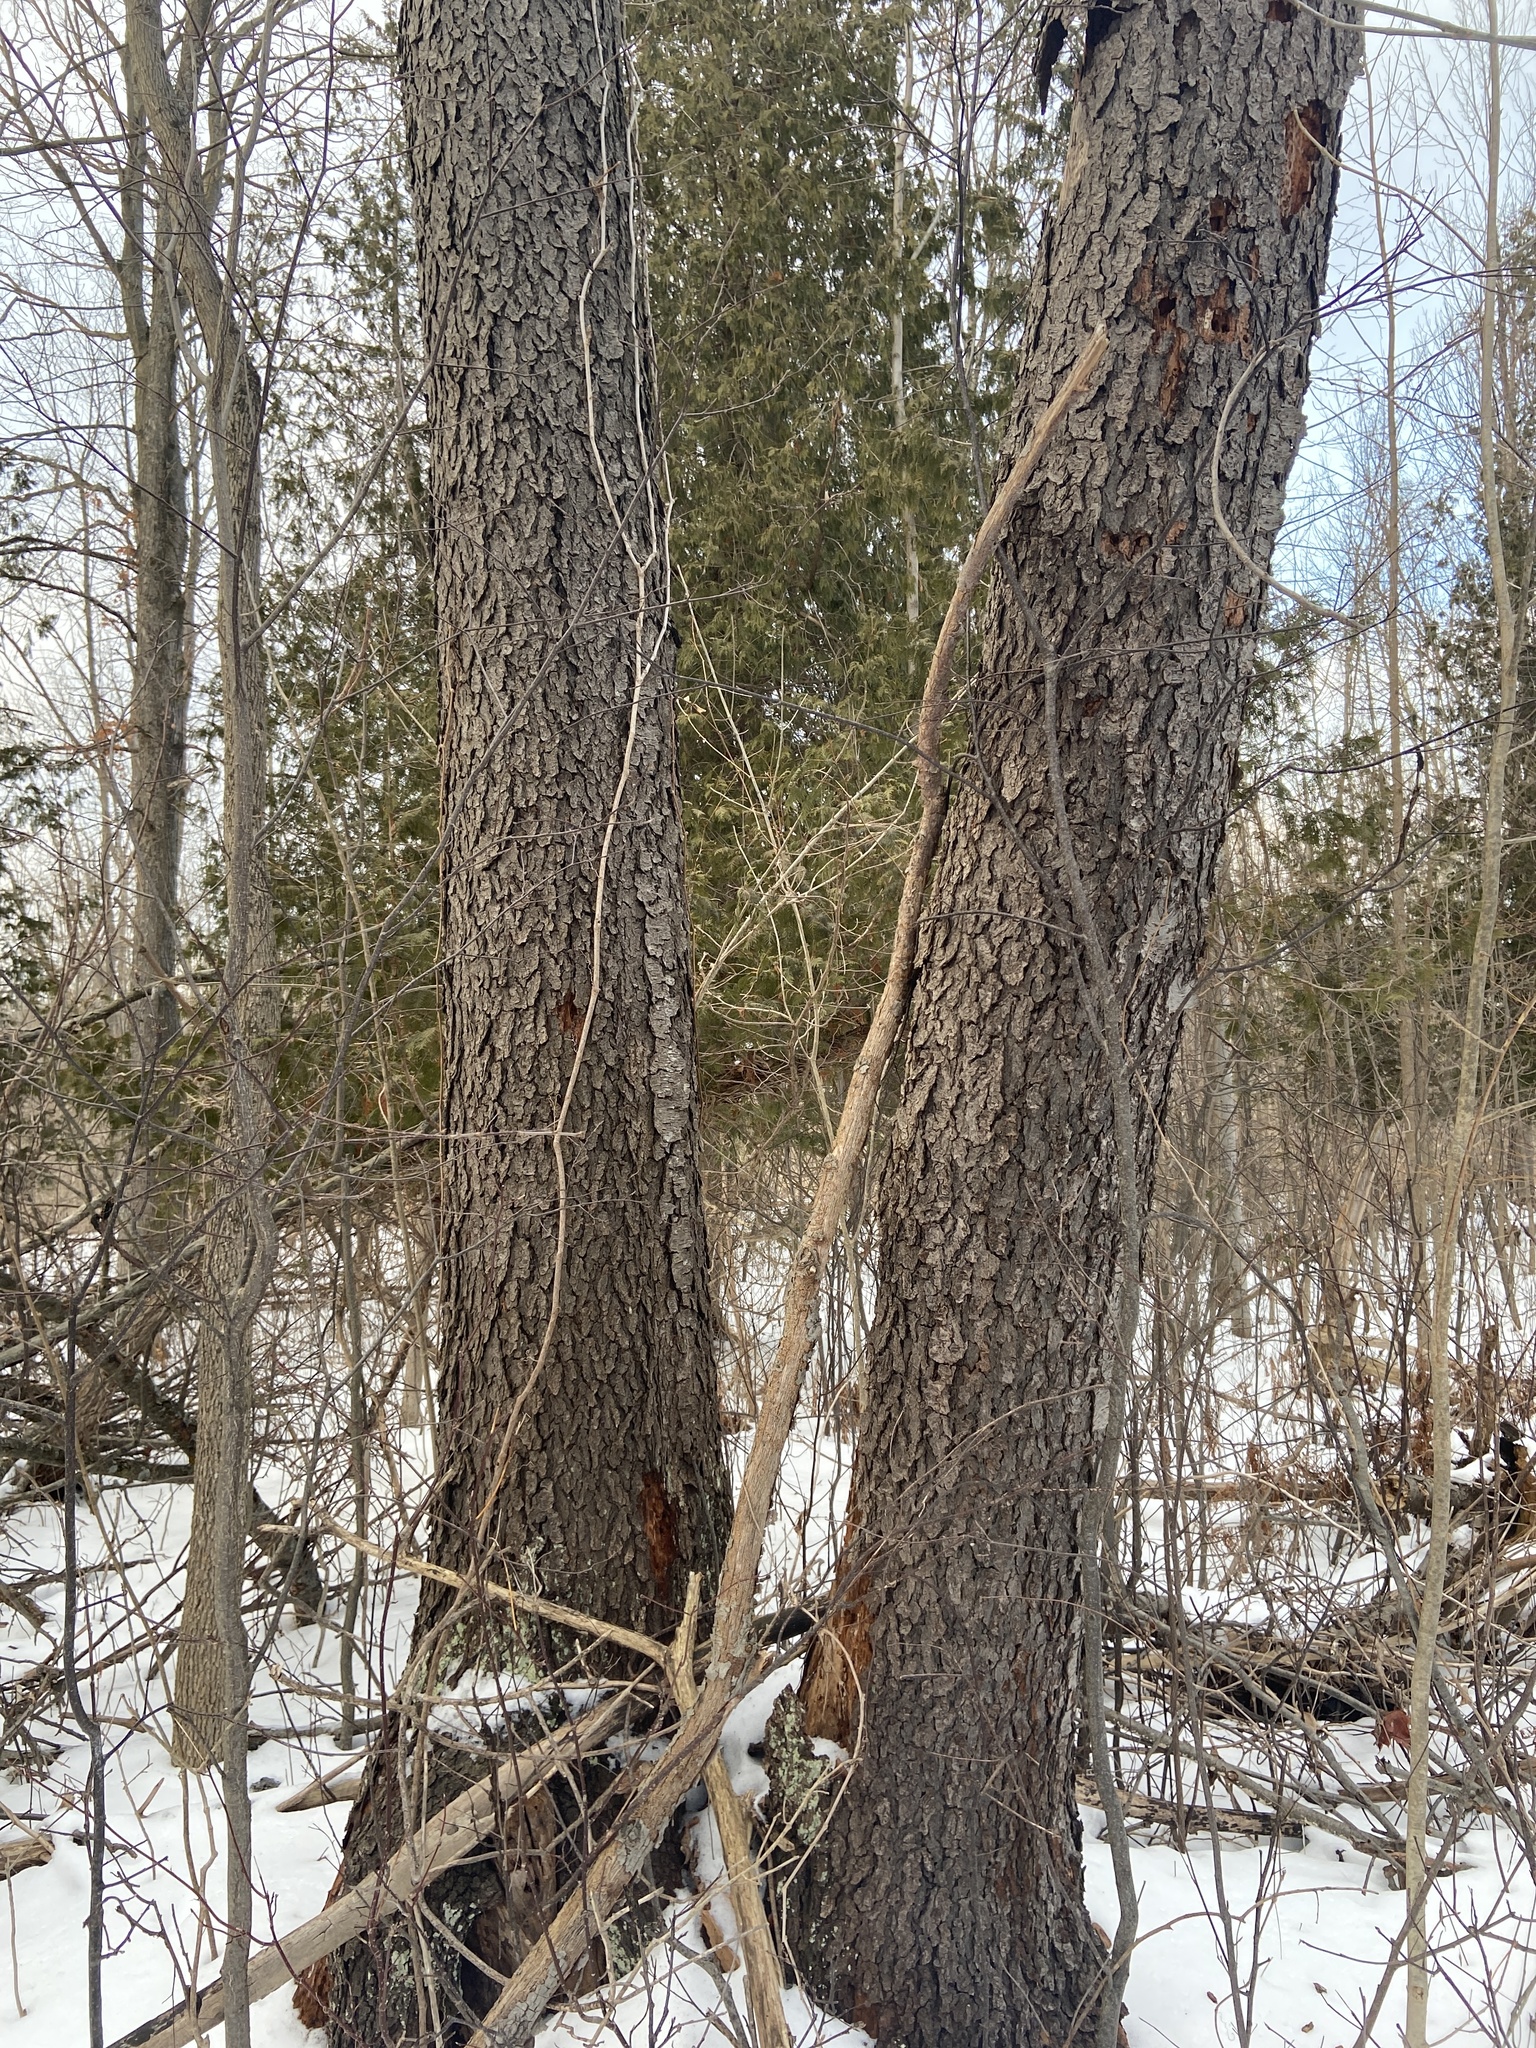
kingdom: Plantae
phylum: Tracheophyta
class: Magnoliopsida
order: Rosales
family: Rosaceae
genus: Prunus
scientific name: Prunus serotina
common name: Black cherry
